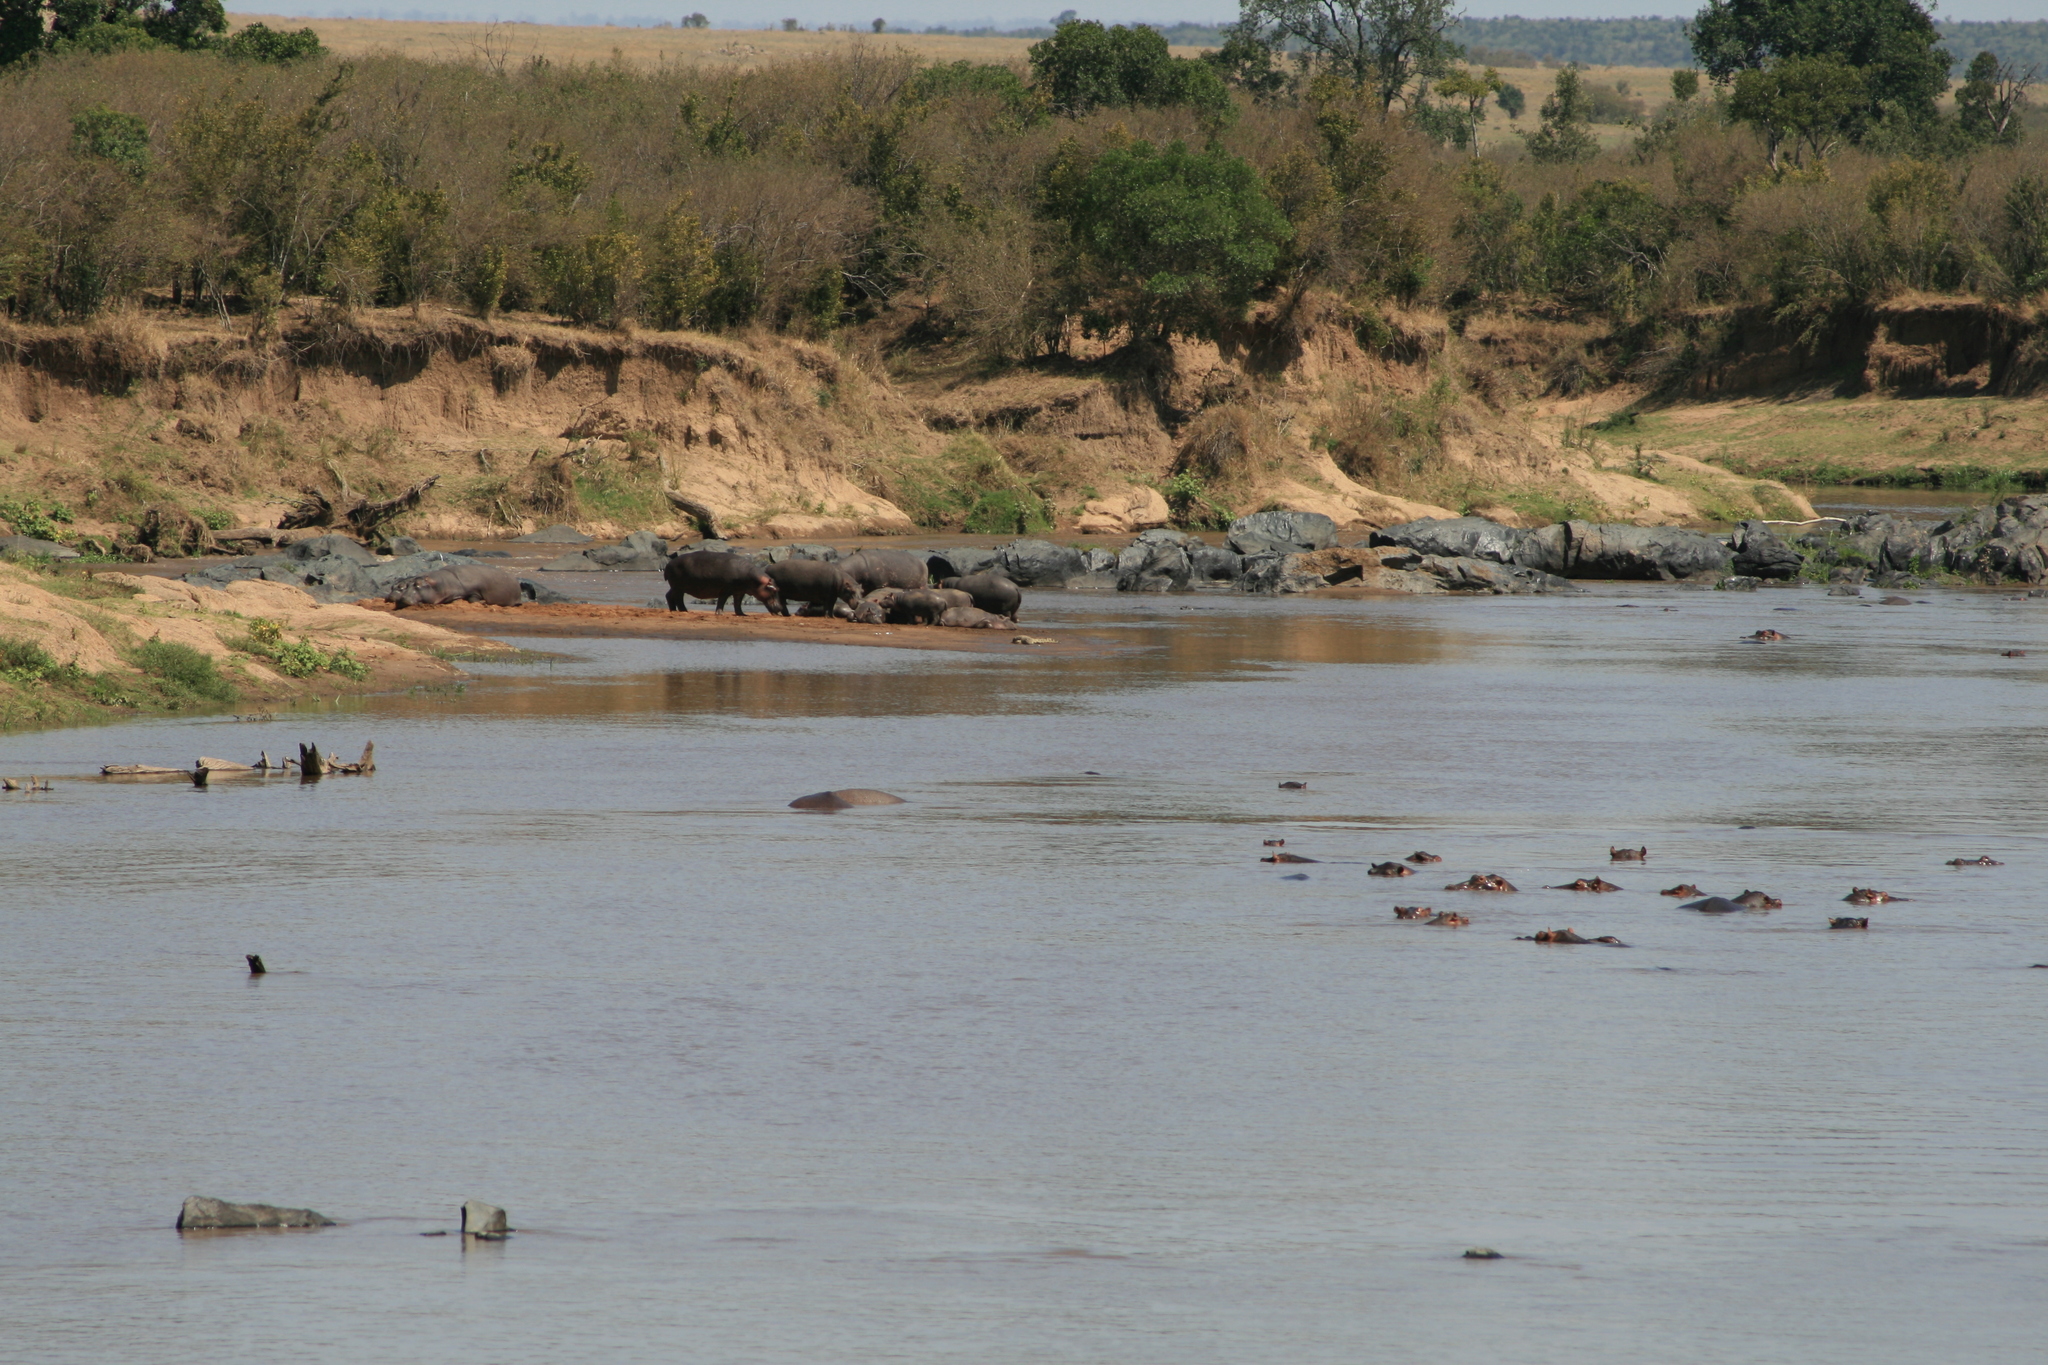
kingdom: Animalia
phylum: Chordata
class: Mammalia
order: Artiodactyla
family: Hippopotamidae
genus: Hippopotamus
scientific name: Hippopotamus amphibius
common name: Common hippopotamus
